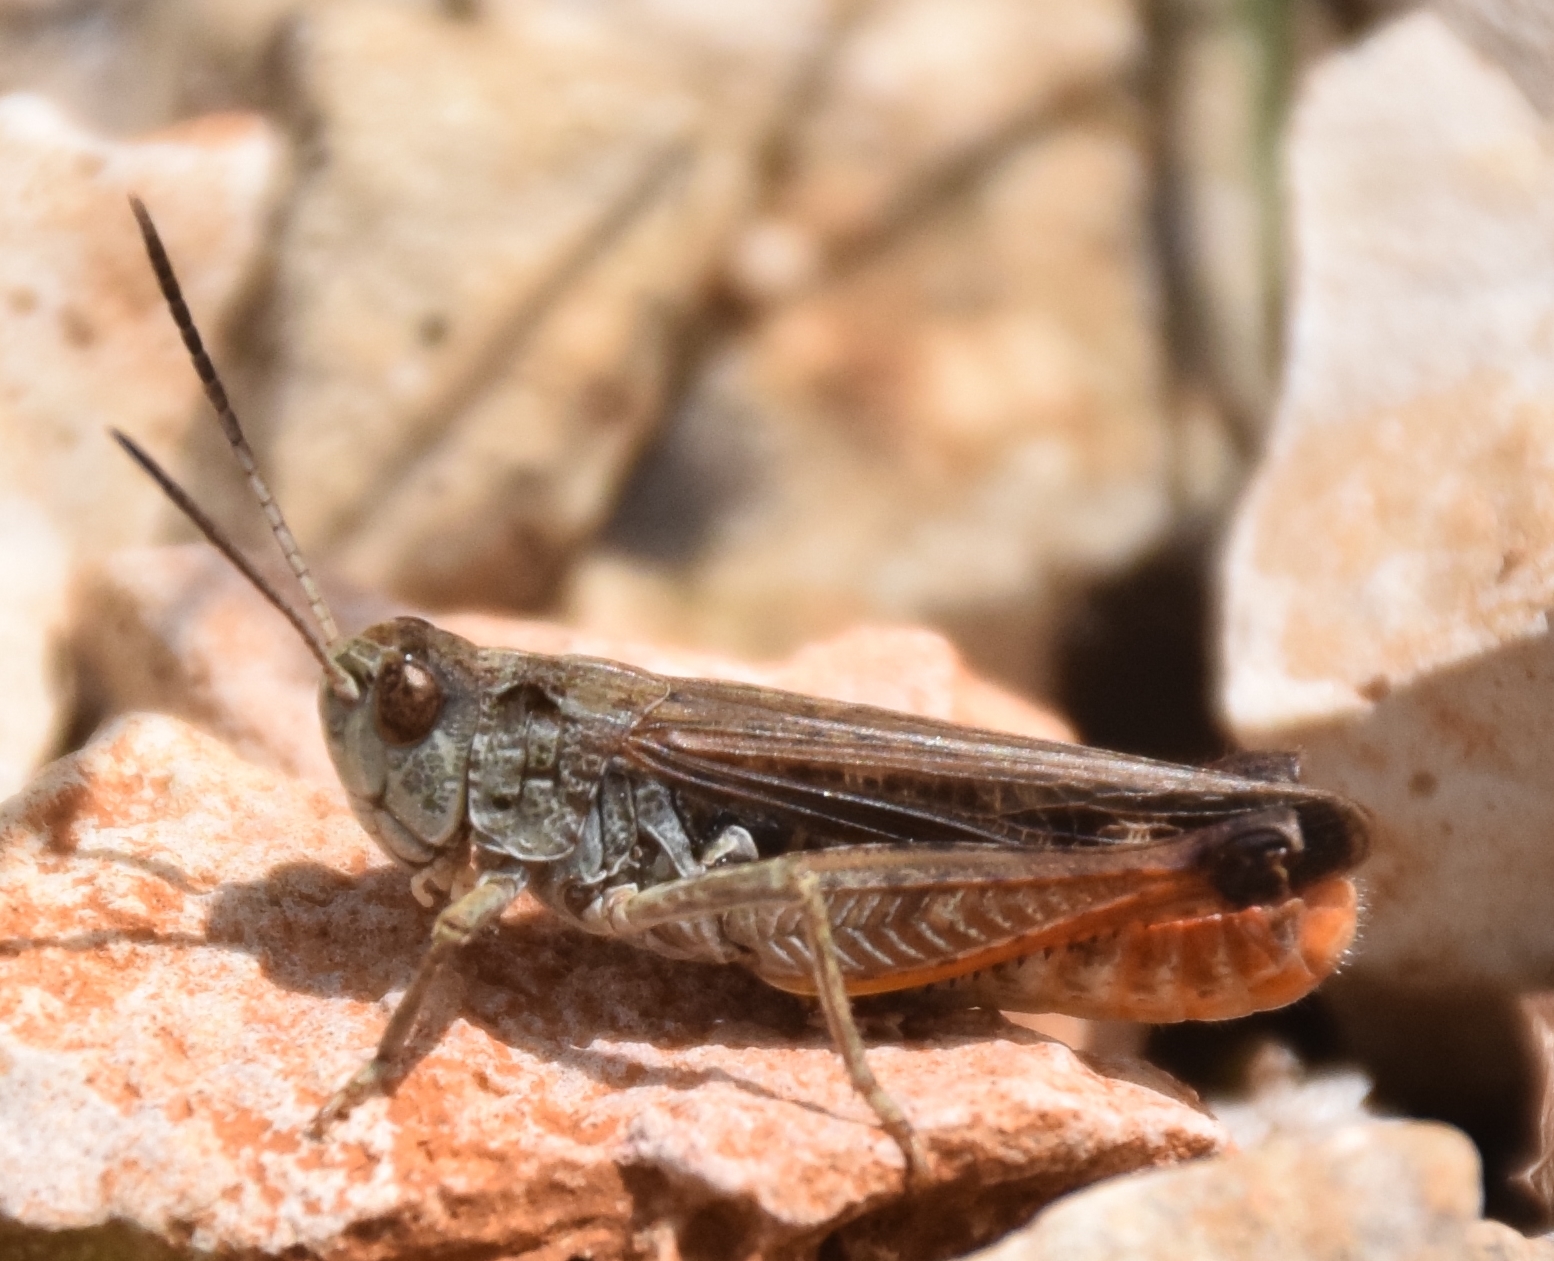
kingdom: Animalia
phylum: Arthropoda
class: Insecta
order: Orthoptera
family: Acrididae
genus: Stenobothrus
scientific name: Stenobothrus festivus
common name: Festive toothed grasshopper
